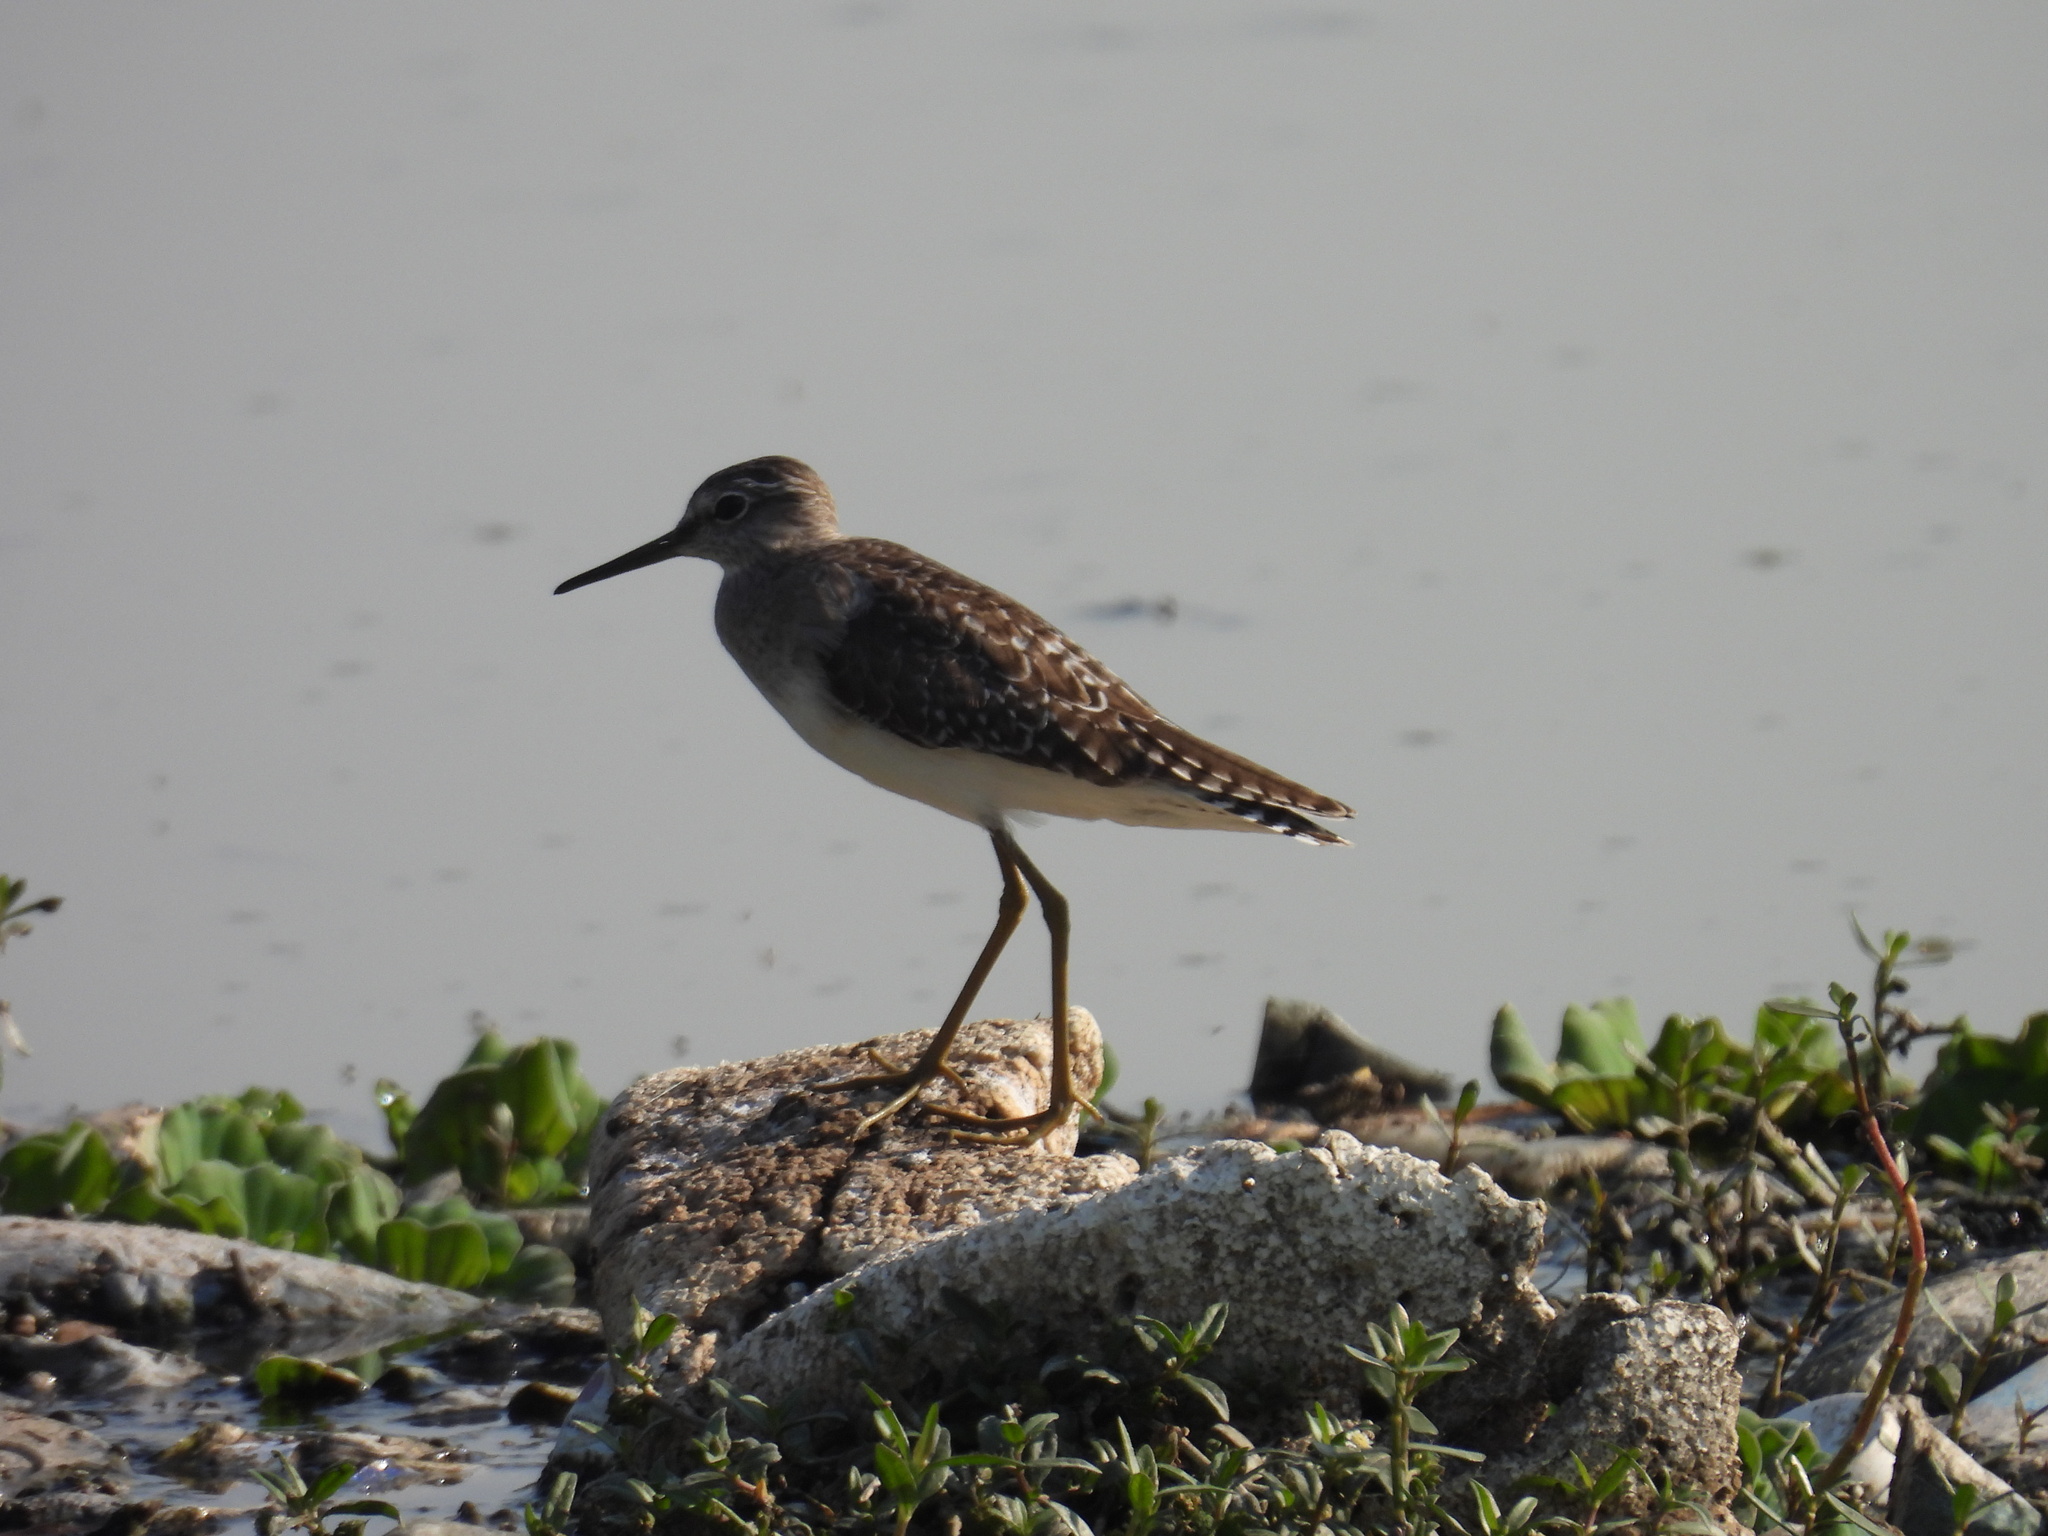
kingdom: Animalia
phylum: Chordata
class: Aves
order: Charadriiformes
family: Scolopacidae
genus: Tringa
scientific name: Tringa glareola
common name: Wood sandpiper
